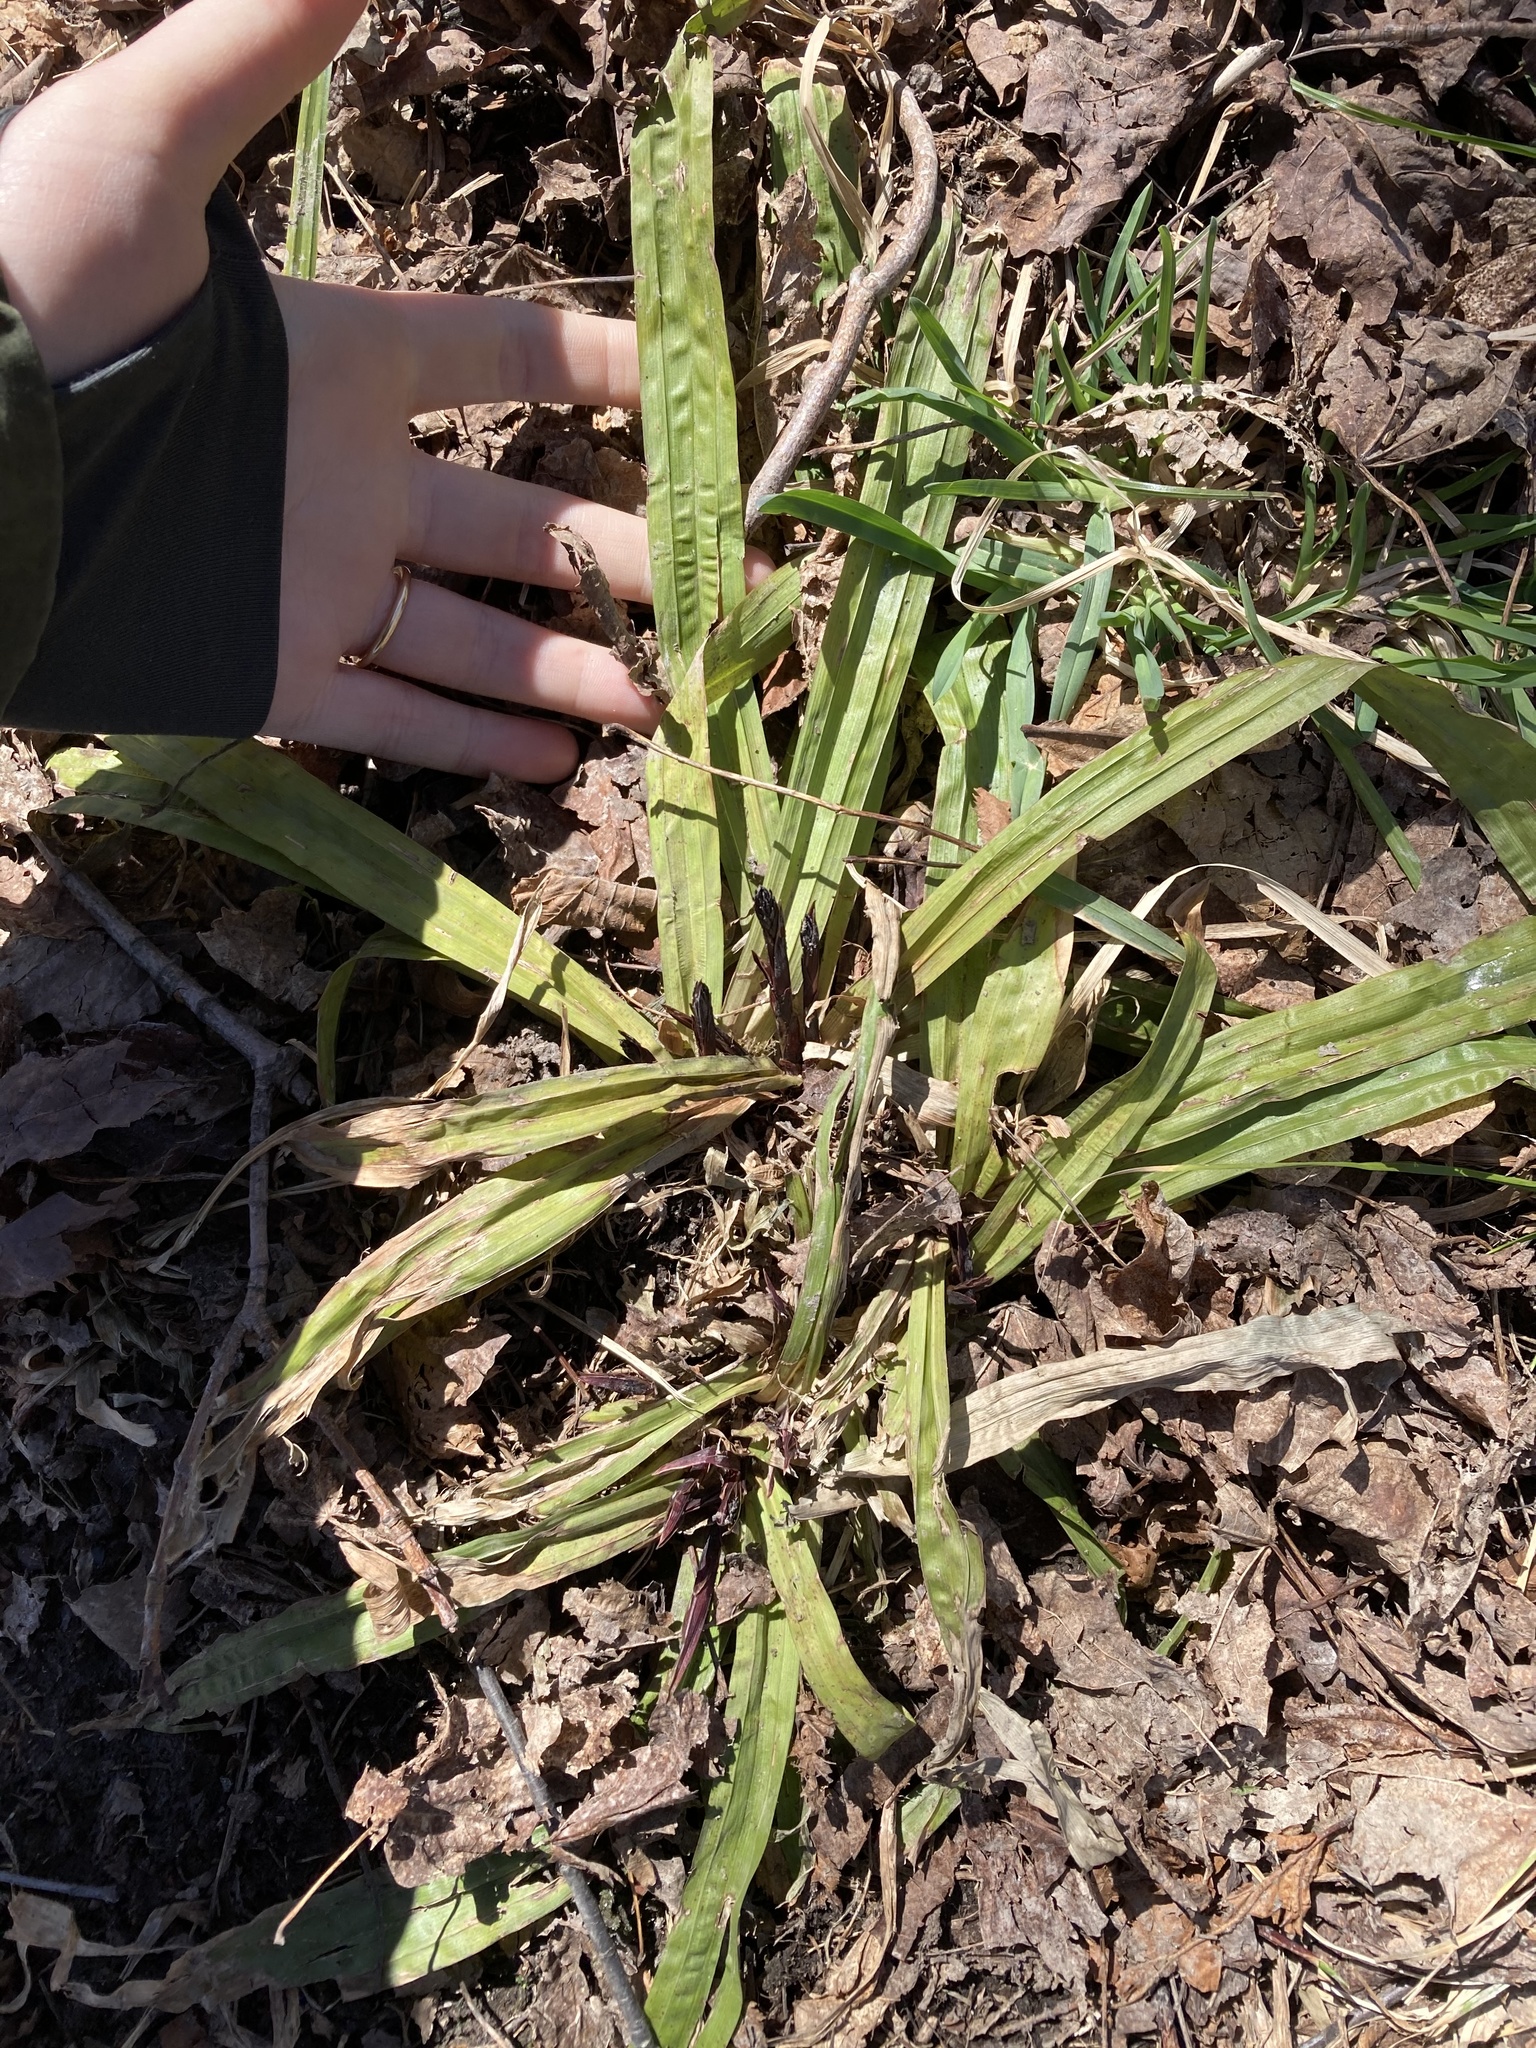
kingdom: Plantae
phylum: Tracheophyta
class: Liliopsida
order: Poales
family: Cyperaceae
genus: Carex
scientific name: Carex plantaginea
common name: Plantain-leaved sedge
